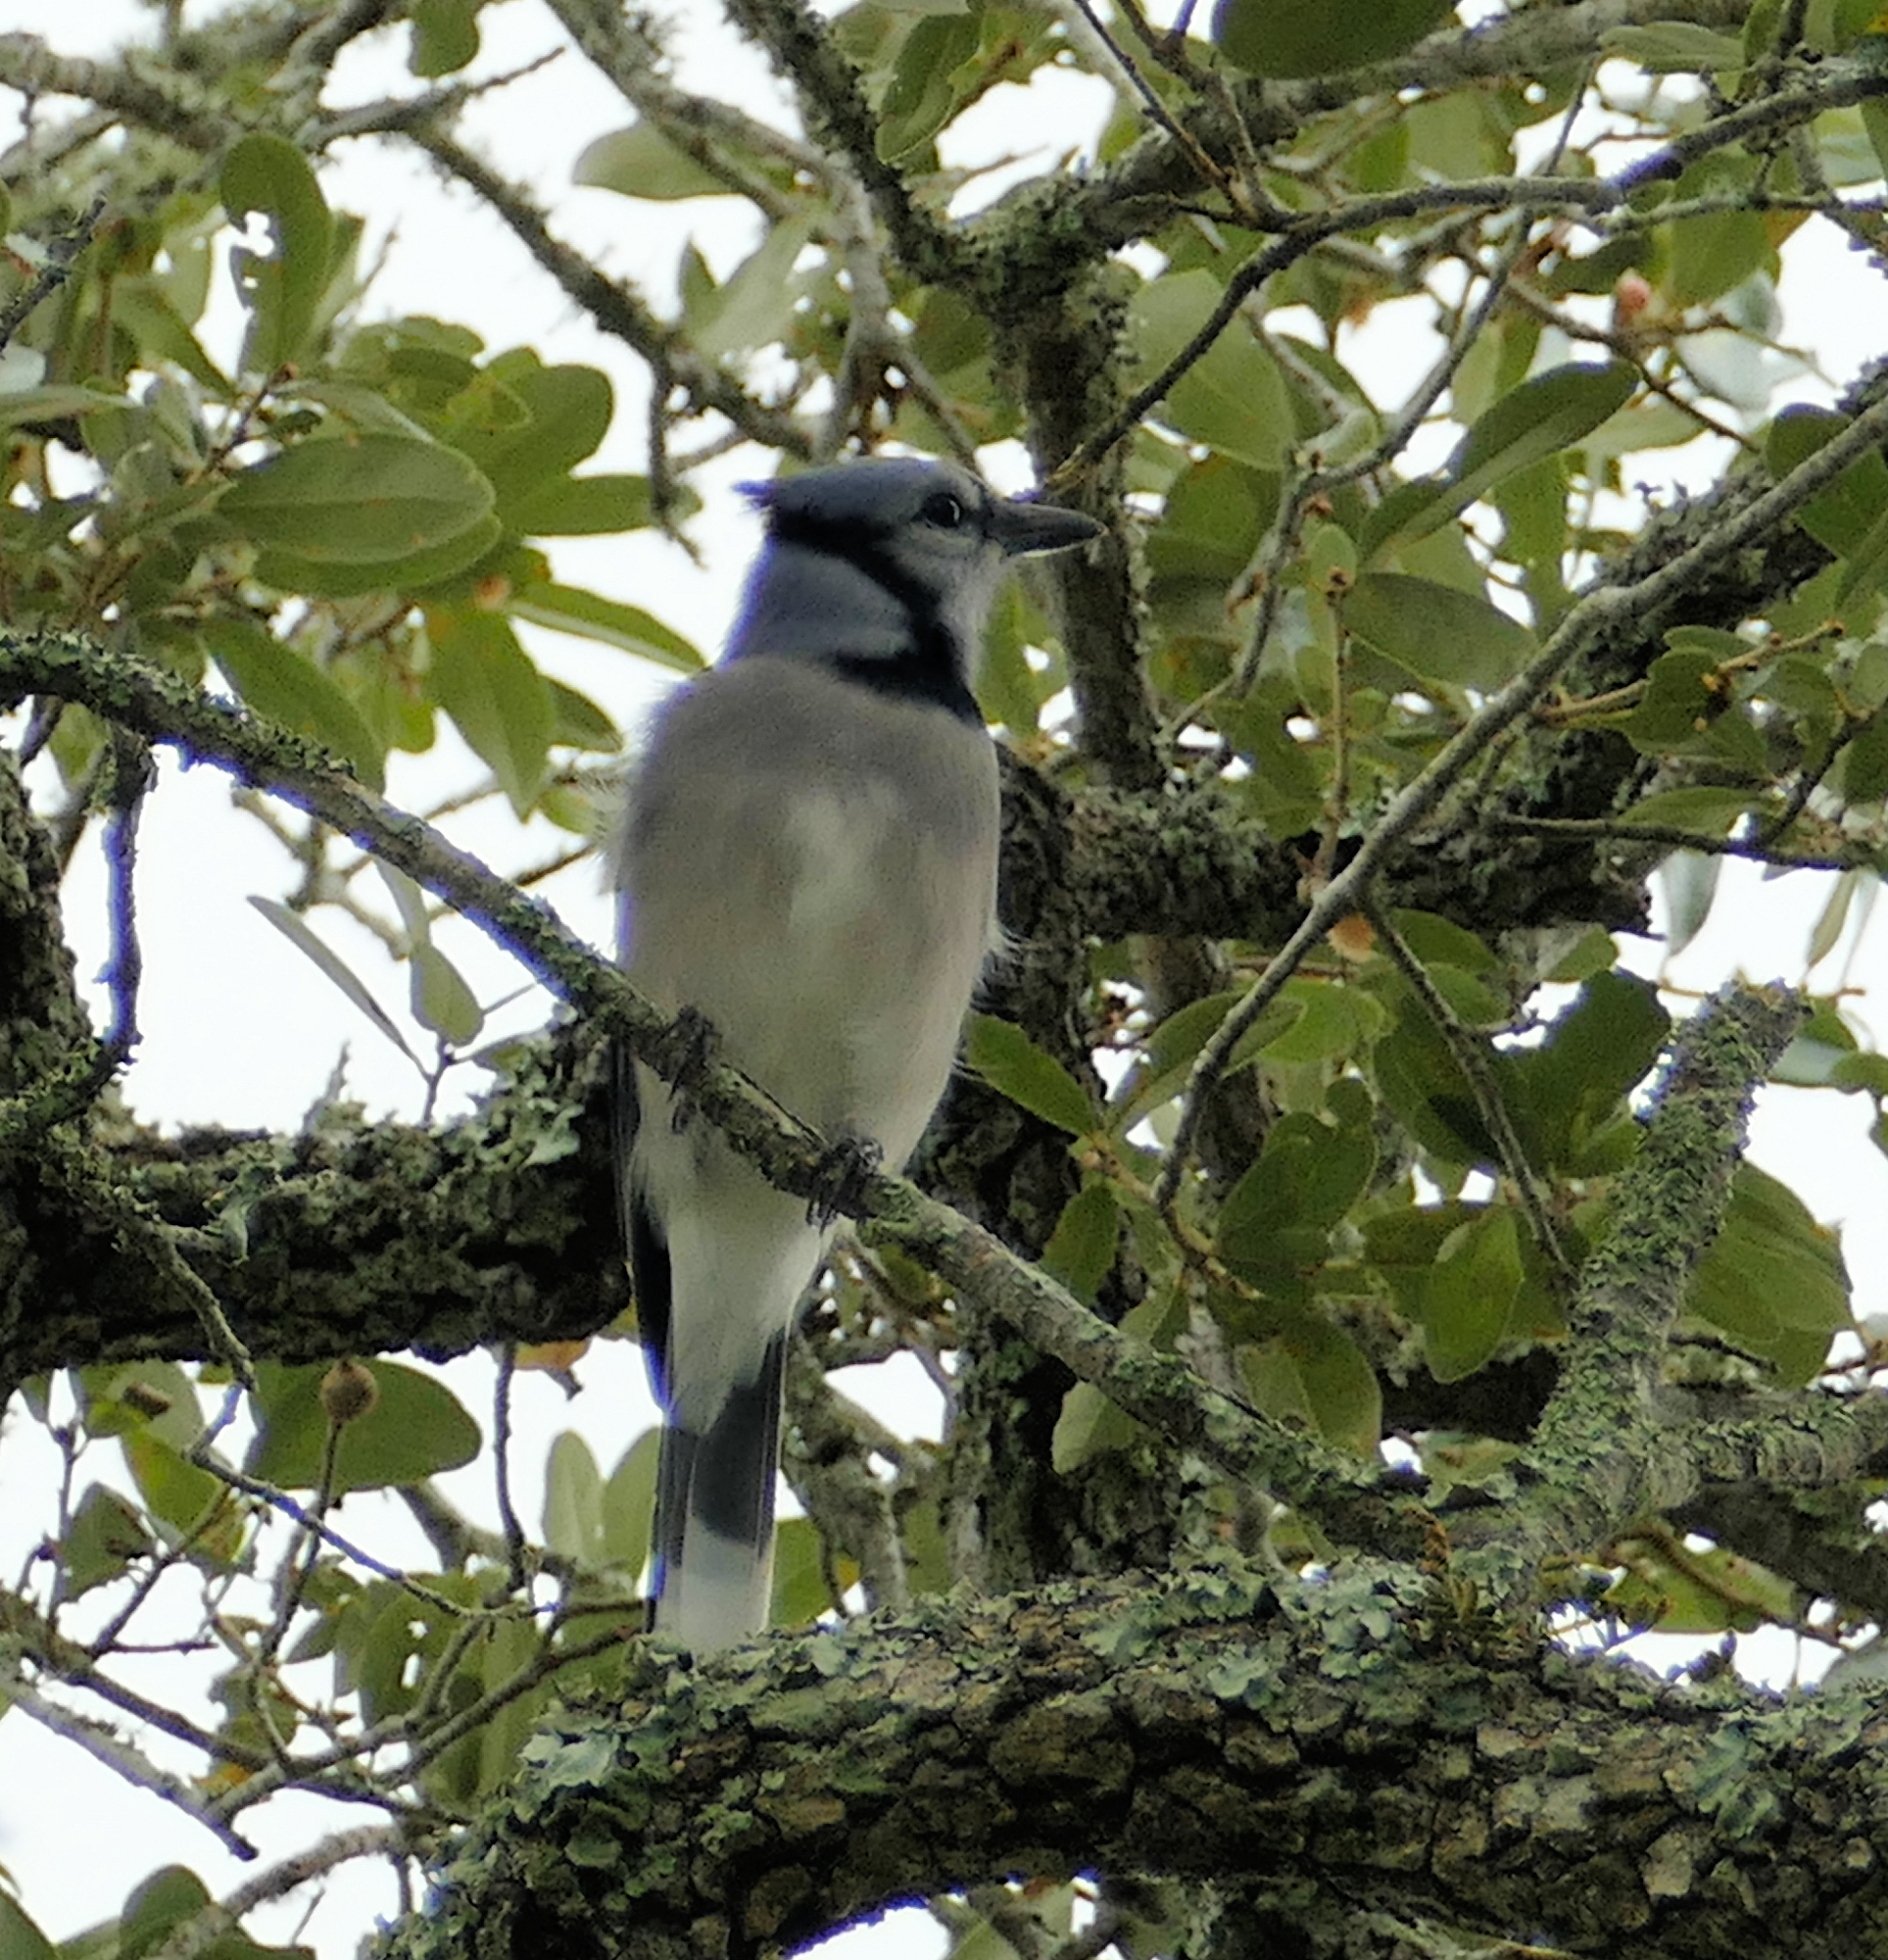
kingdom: Animalia
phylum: Chordata
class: Aves
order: Passeriformes
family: Corvidae
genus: Cyanocitta
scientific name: Cyanocitta cristata
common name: Blue jay
